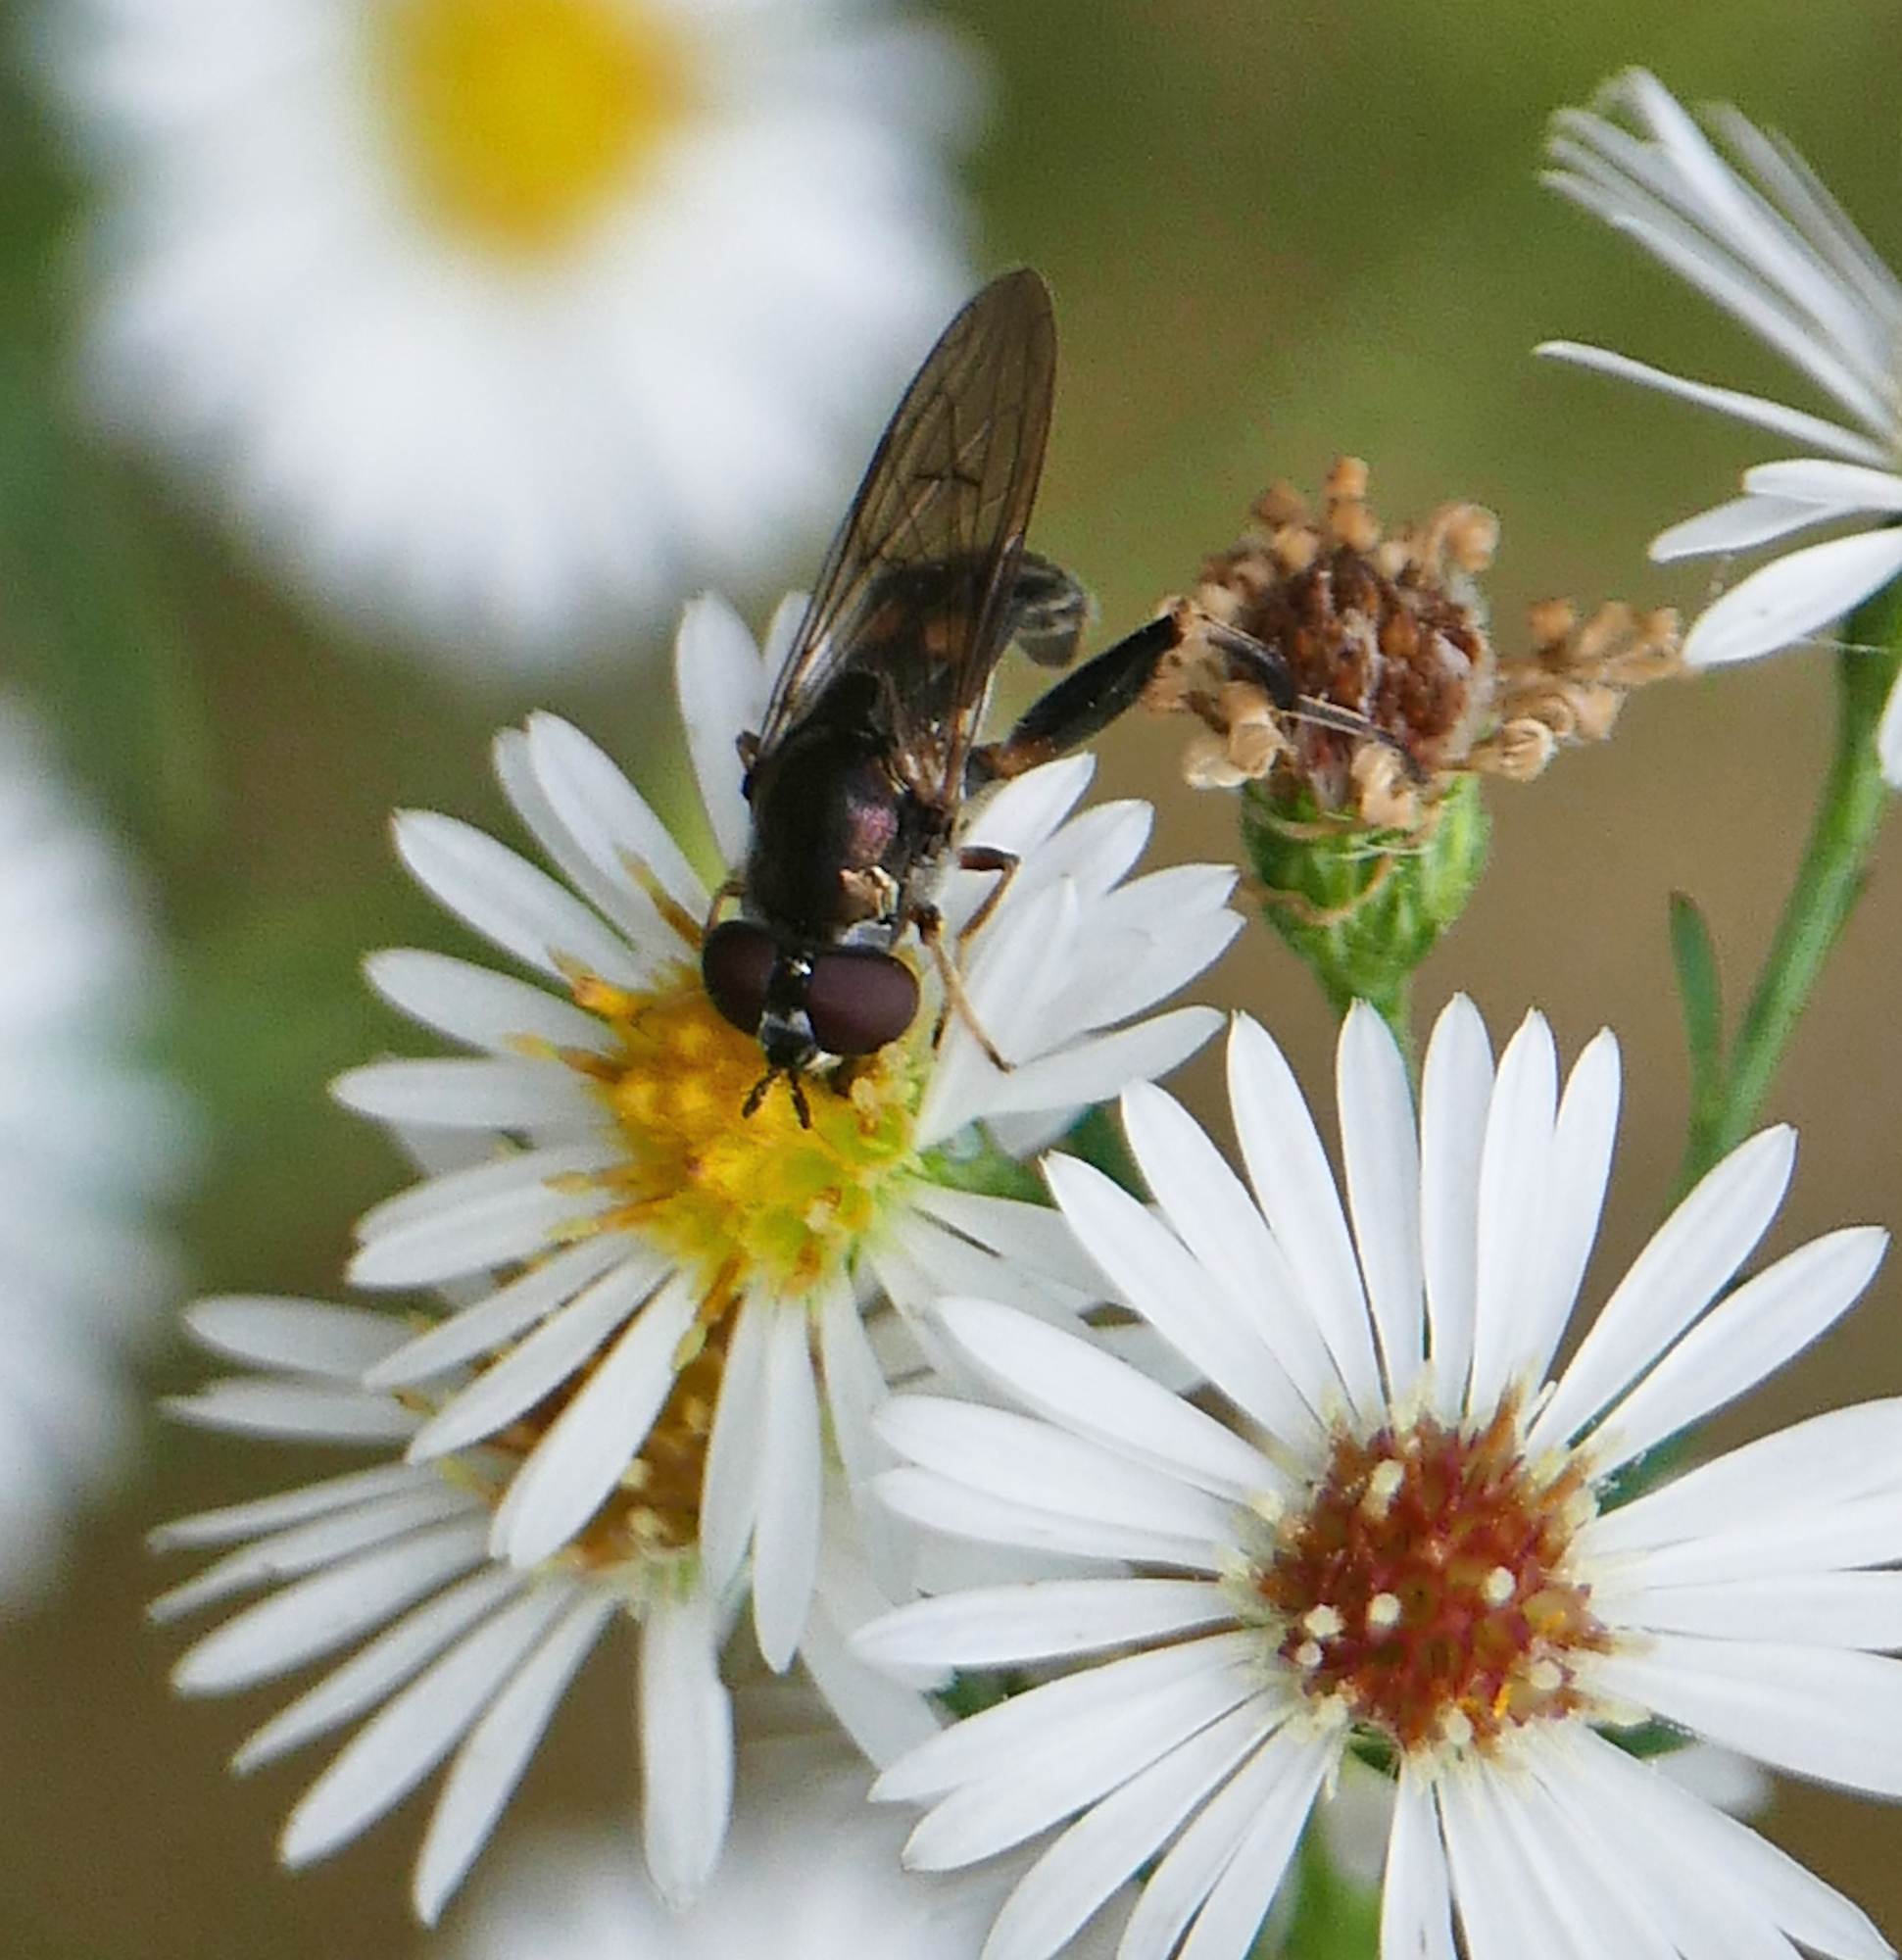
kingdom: Animalia
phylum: Arthropoda
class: Insecta
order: Diptera
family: Syrphidae
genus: Chalcosyrphus
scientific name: Chalcosyrphus metallicus
